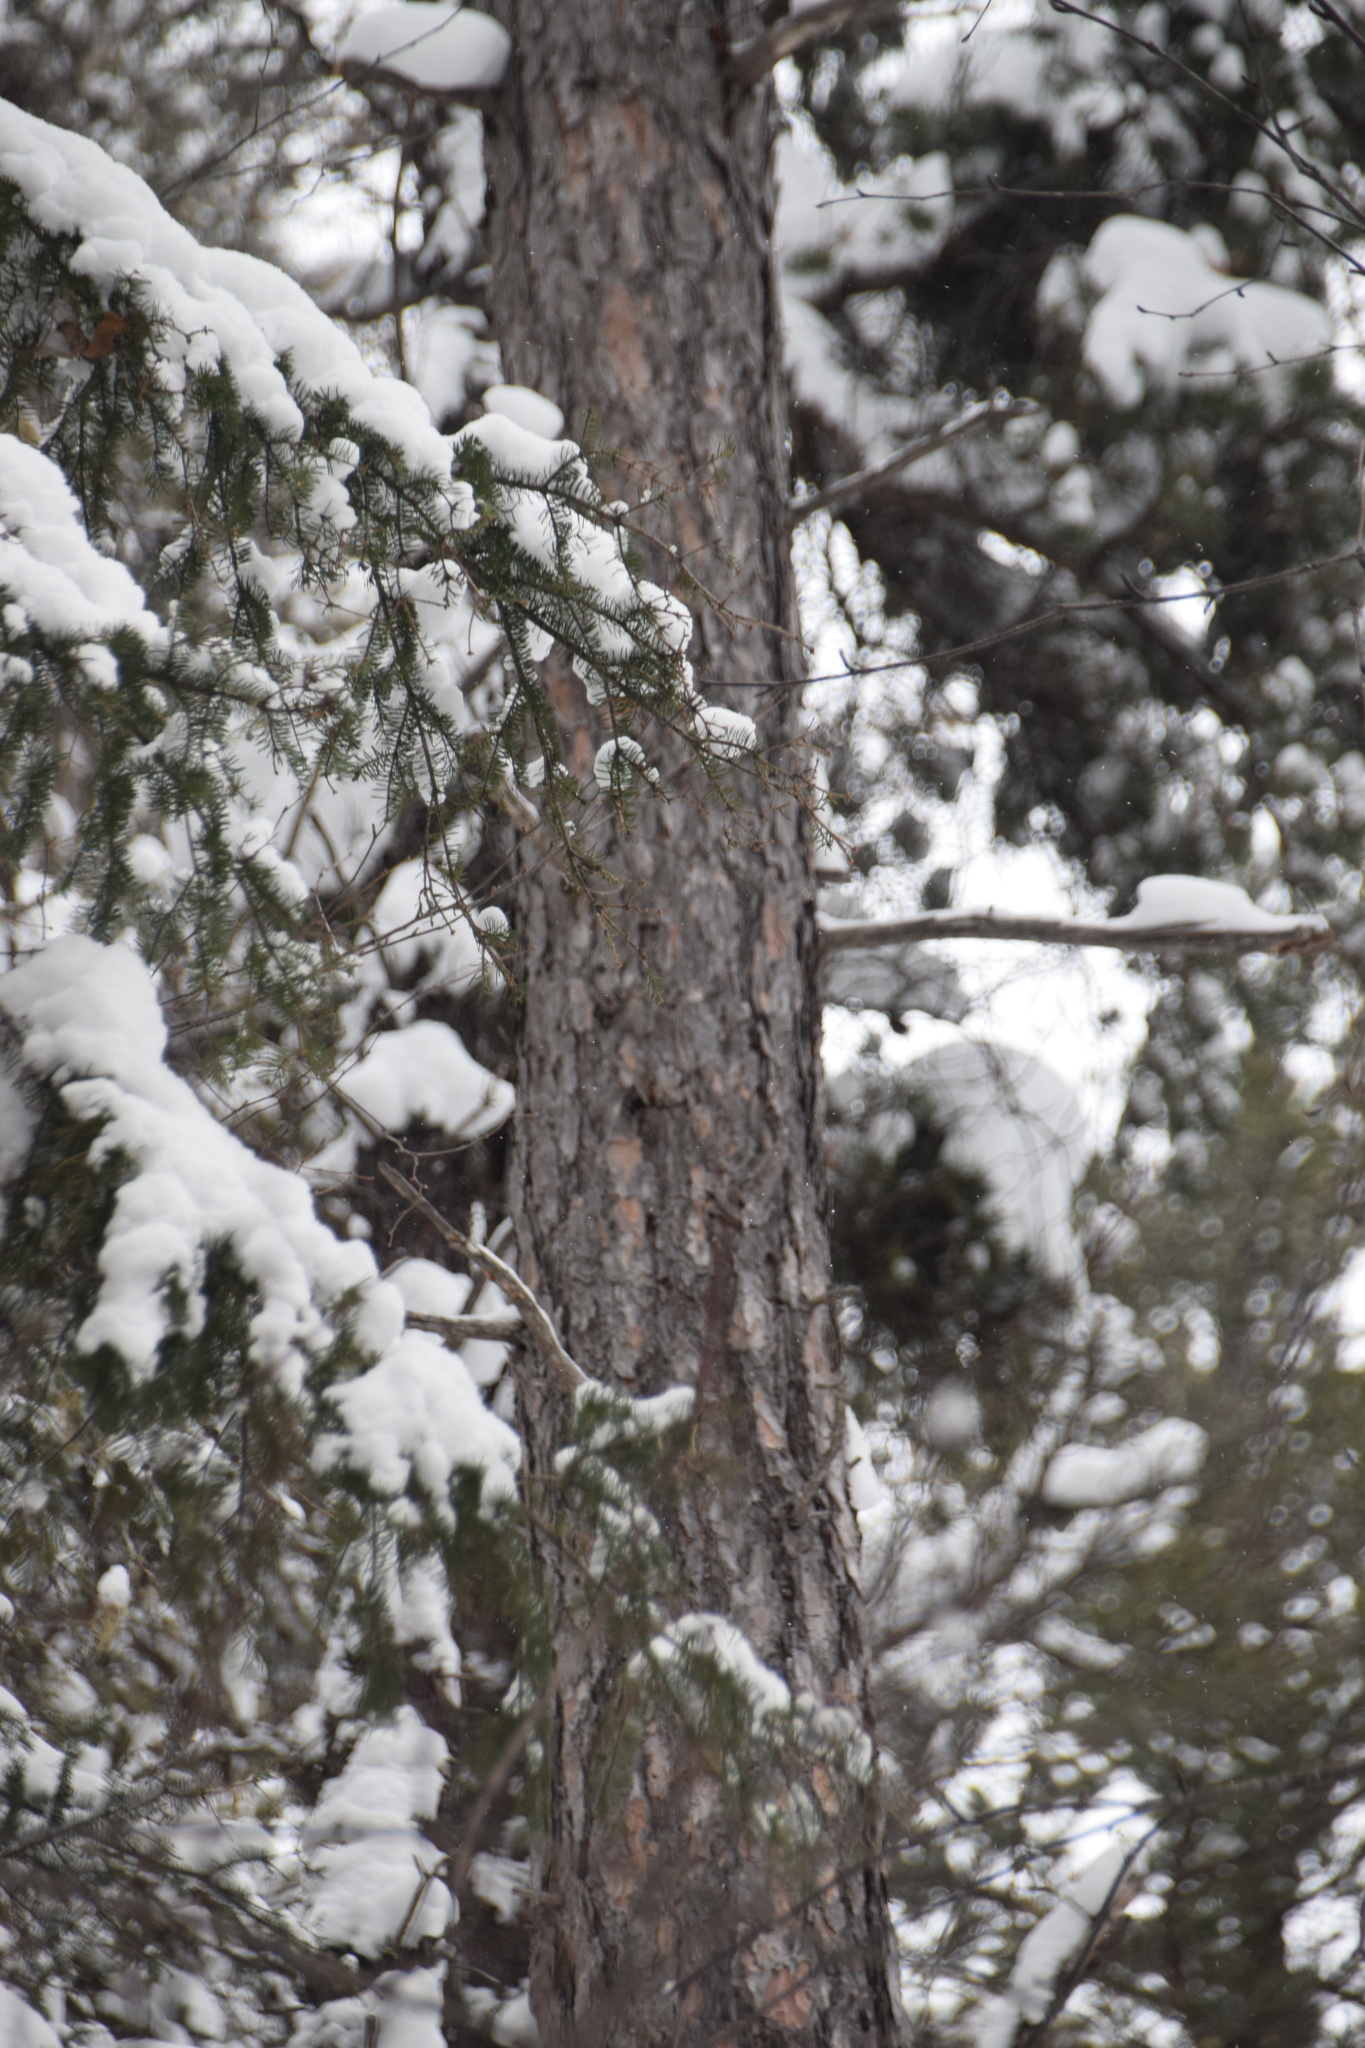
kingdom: Plantae
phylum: Tracheophyta
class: Pinopsida
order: Pinales
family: Pinaceae
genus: Pinus
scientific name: Pinus resinosa
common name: Norway pine
